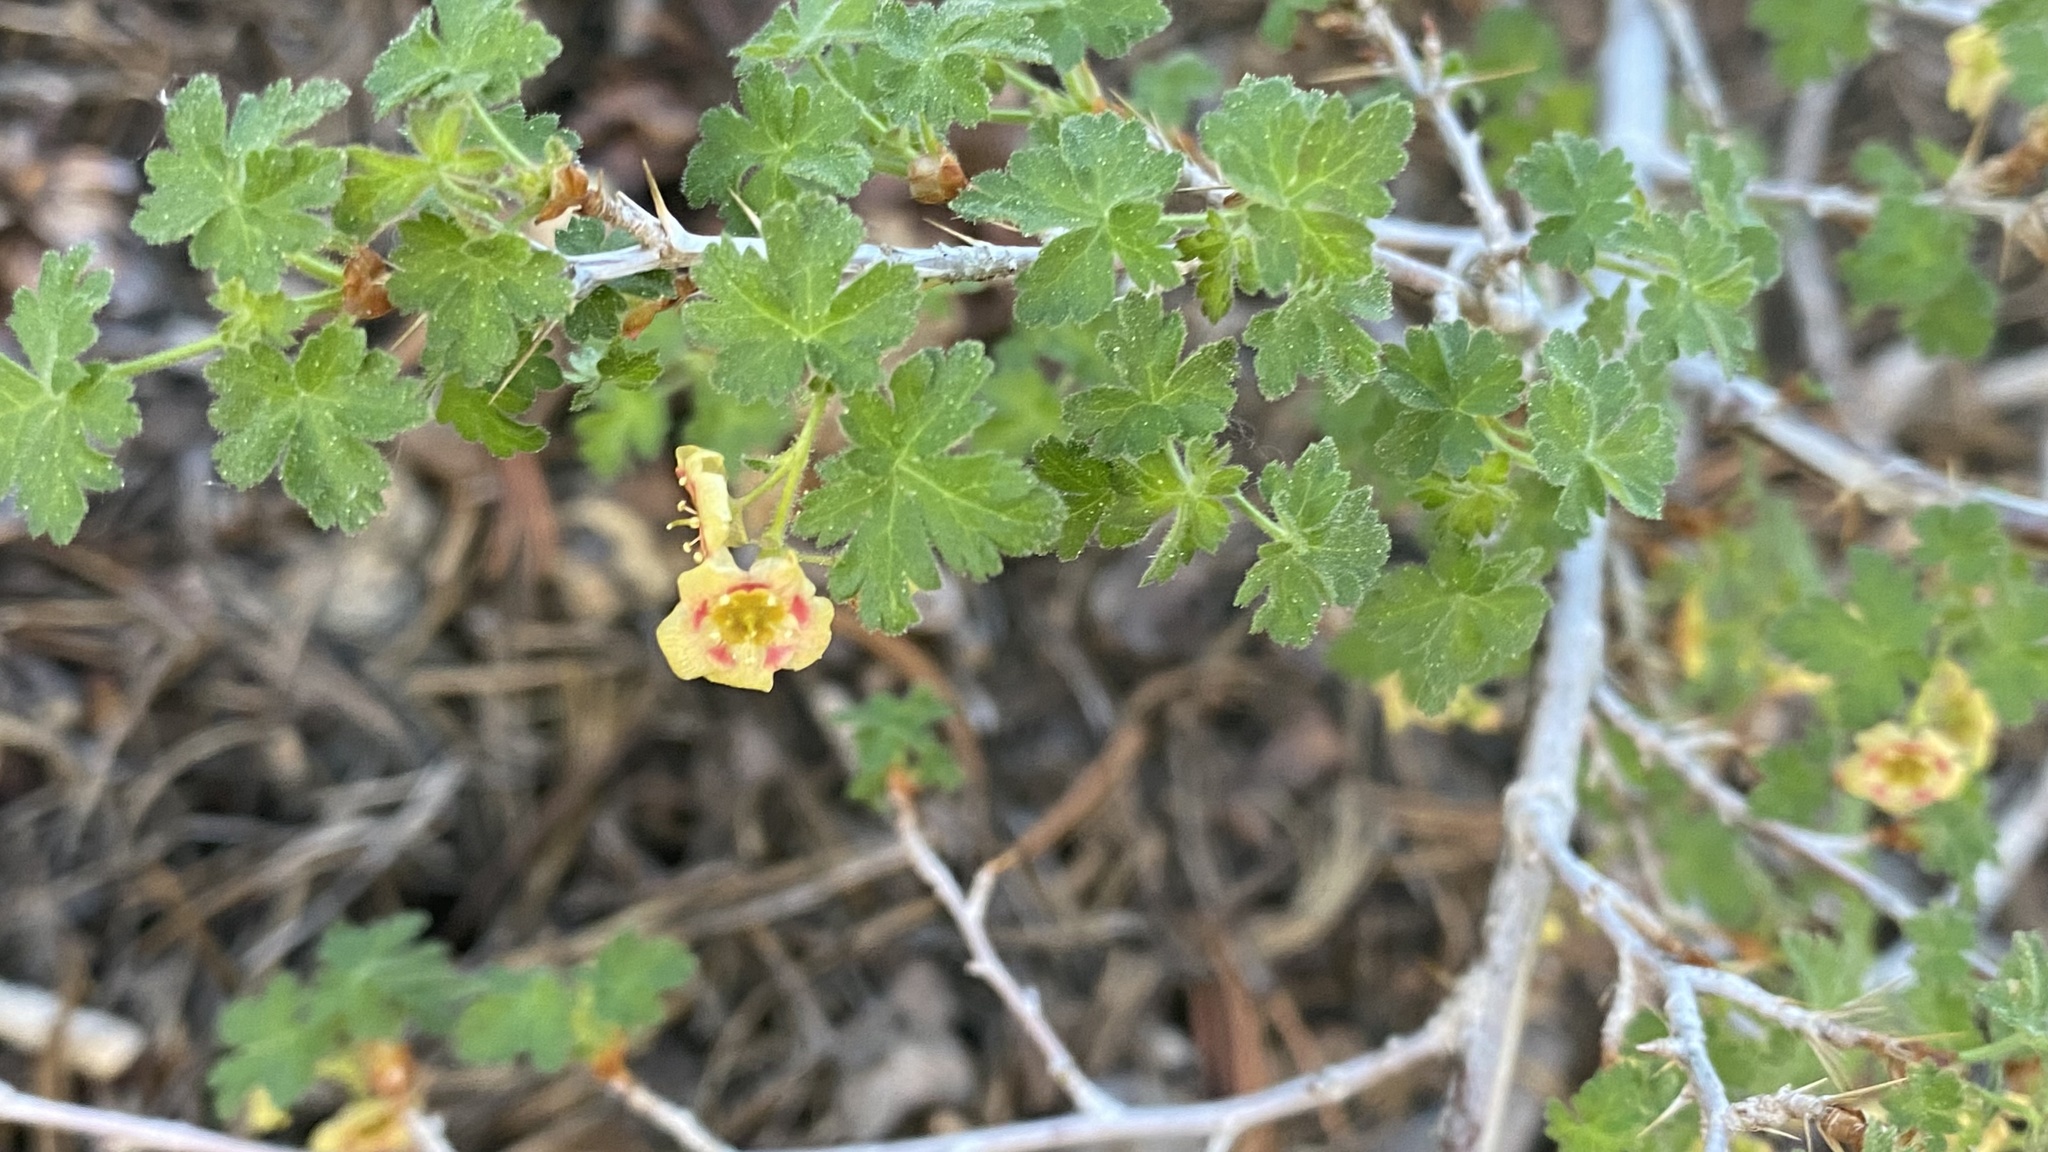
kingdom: Plantae
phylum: Tracheophyta
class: Magnoliopsida
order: Saxifragales
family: Grossulariaceae
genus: Ribes
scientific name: Ribes montigenum
